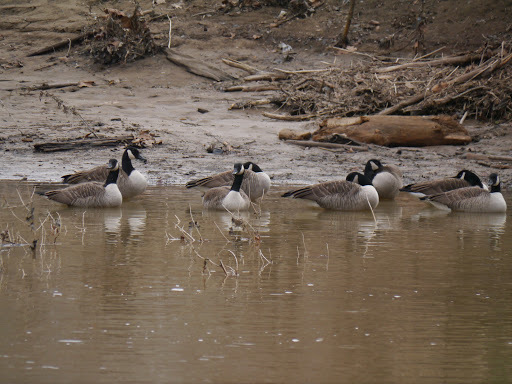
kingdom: Animalia
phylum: Chordata
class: Aves
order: Anseriformes
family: Anatidae
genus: Branta
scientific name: Branta canadensis
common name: Canada goose
